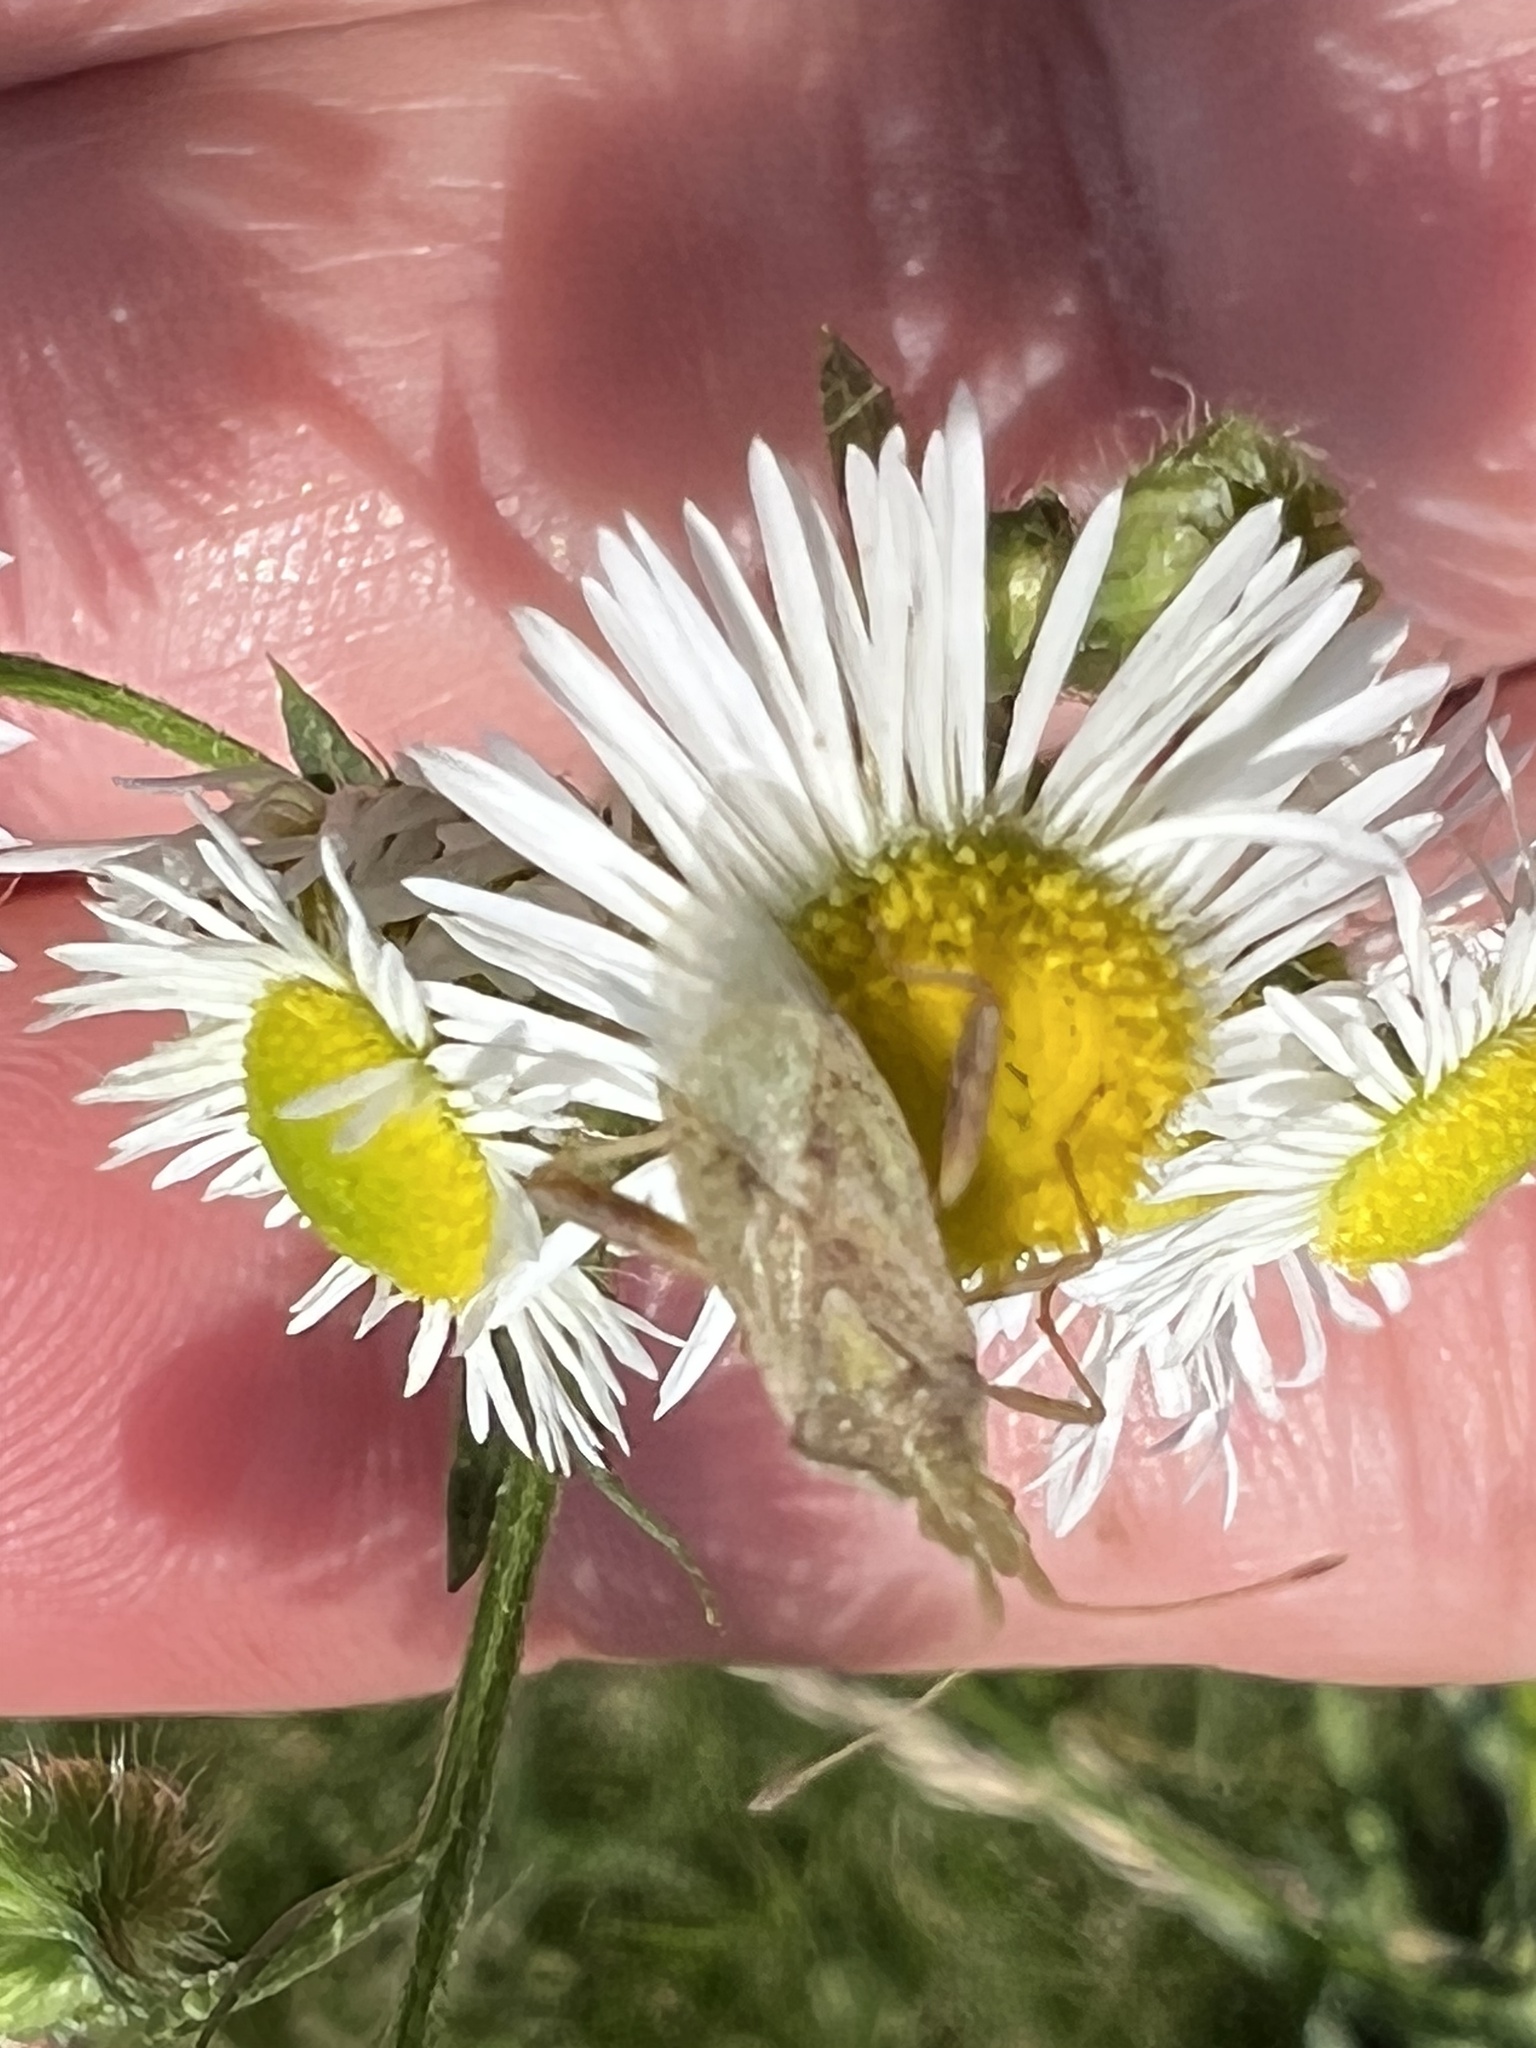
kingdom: Animalia
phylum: Arthropoda
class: Insecta
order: Hemiptera
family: Rhopalidae
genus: Harmostes
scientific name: Harmostes reflexulus
